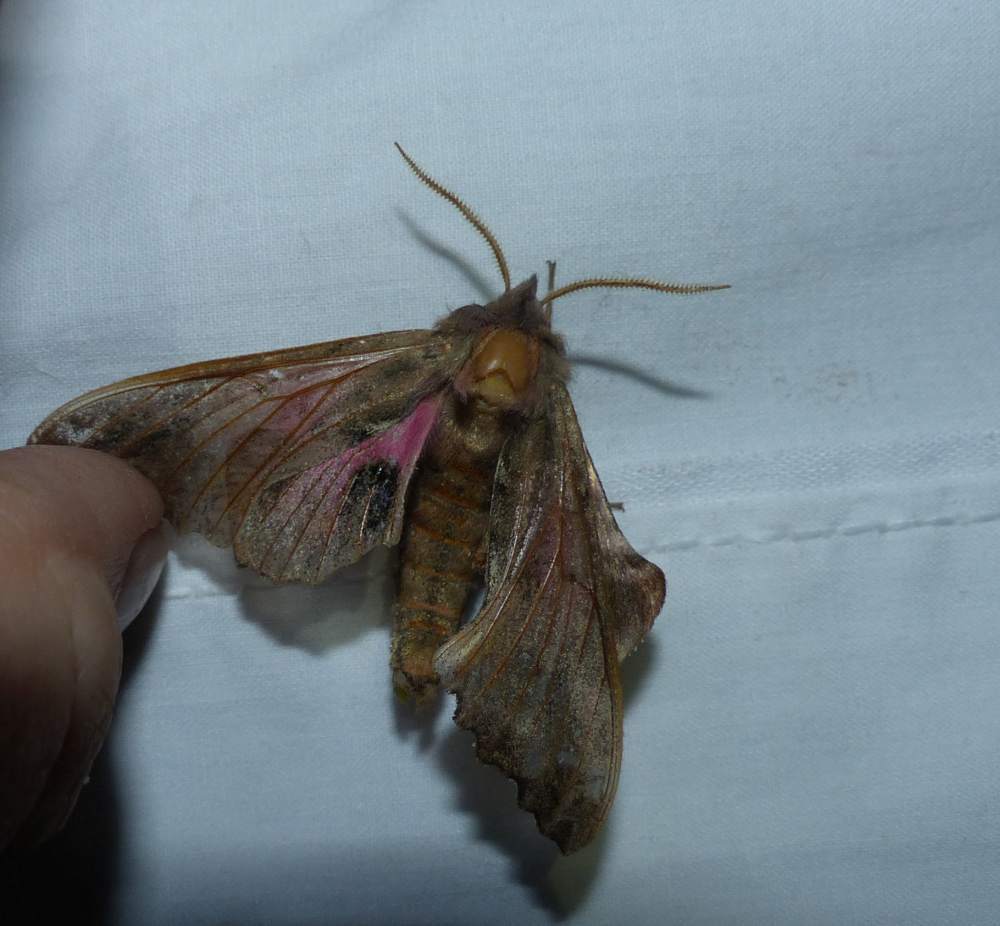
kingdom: Animalia
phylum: Arthropoda
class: Insecta
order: Lepidoptera
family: Sphingidae
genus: Paonias
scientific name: Paonias excaecata
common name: Blind-eyed sphinx
